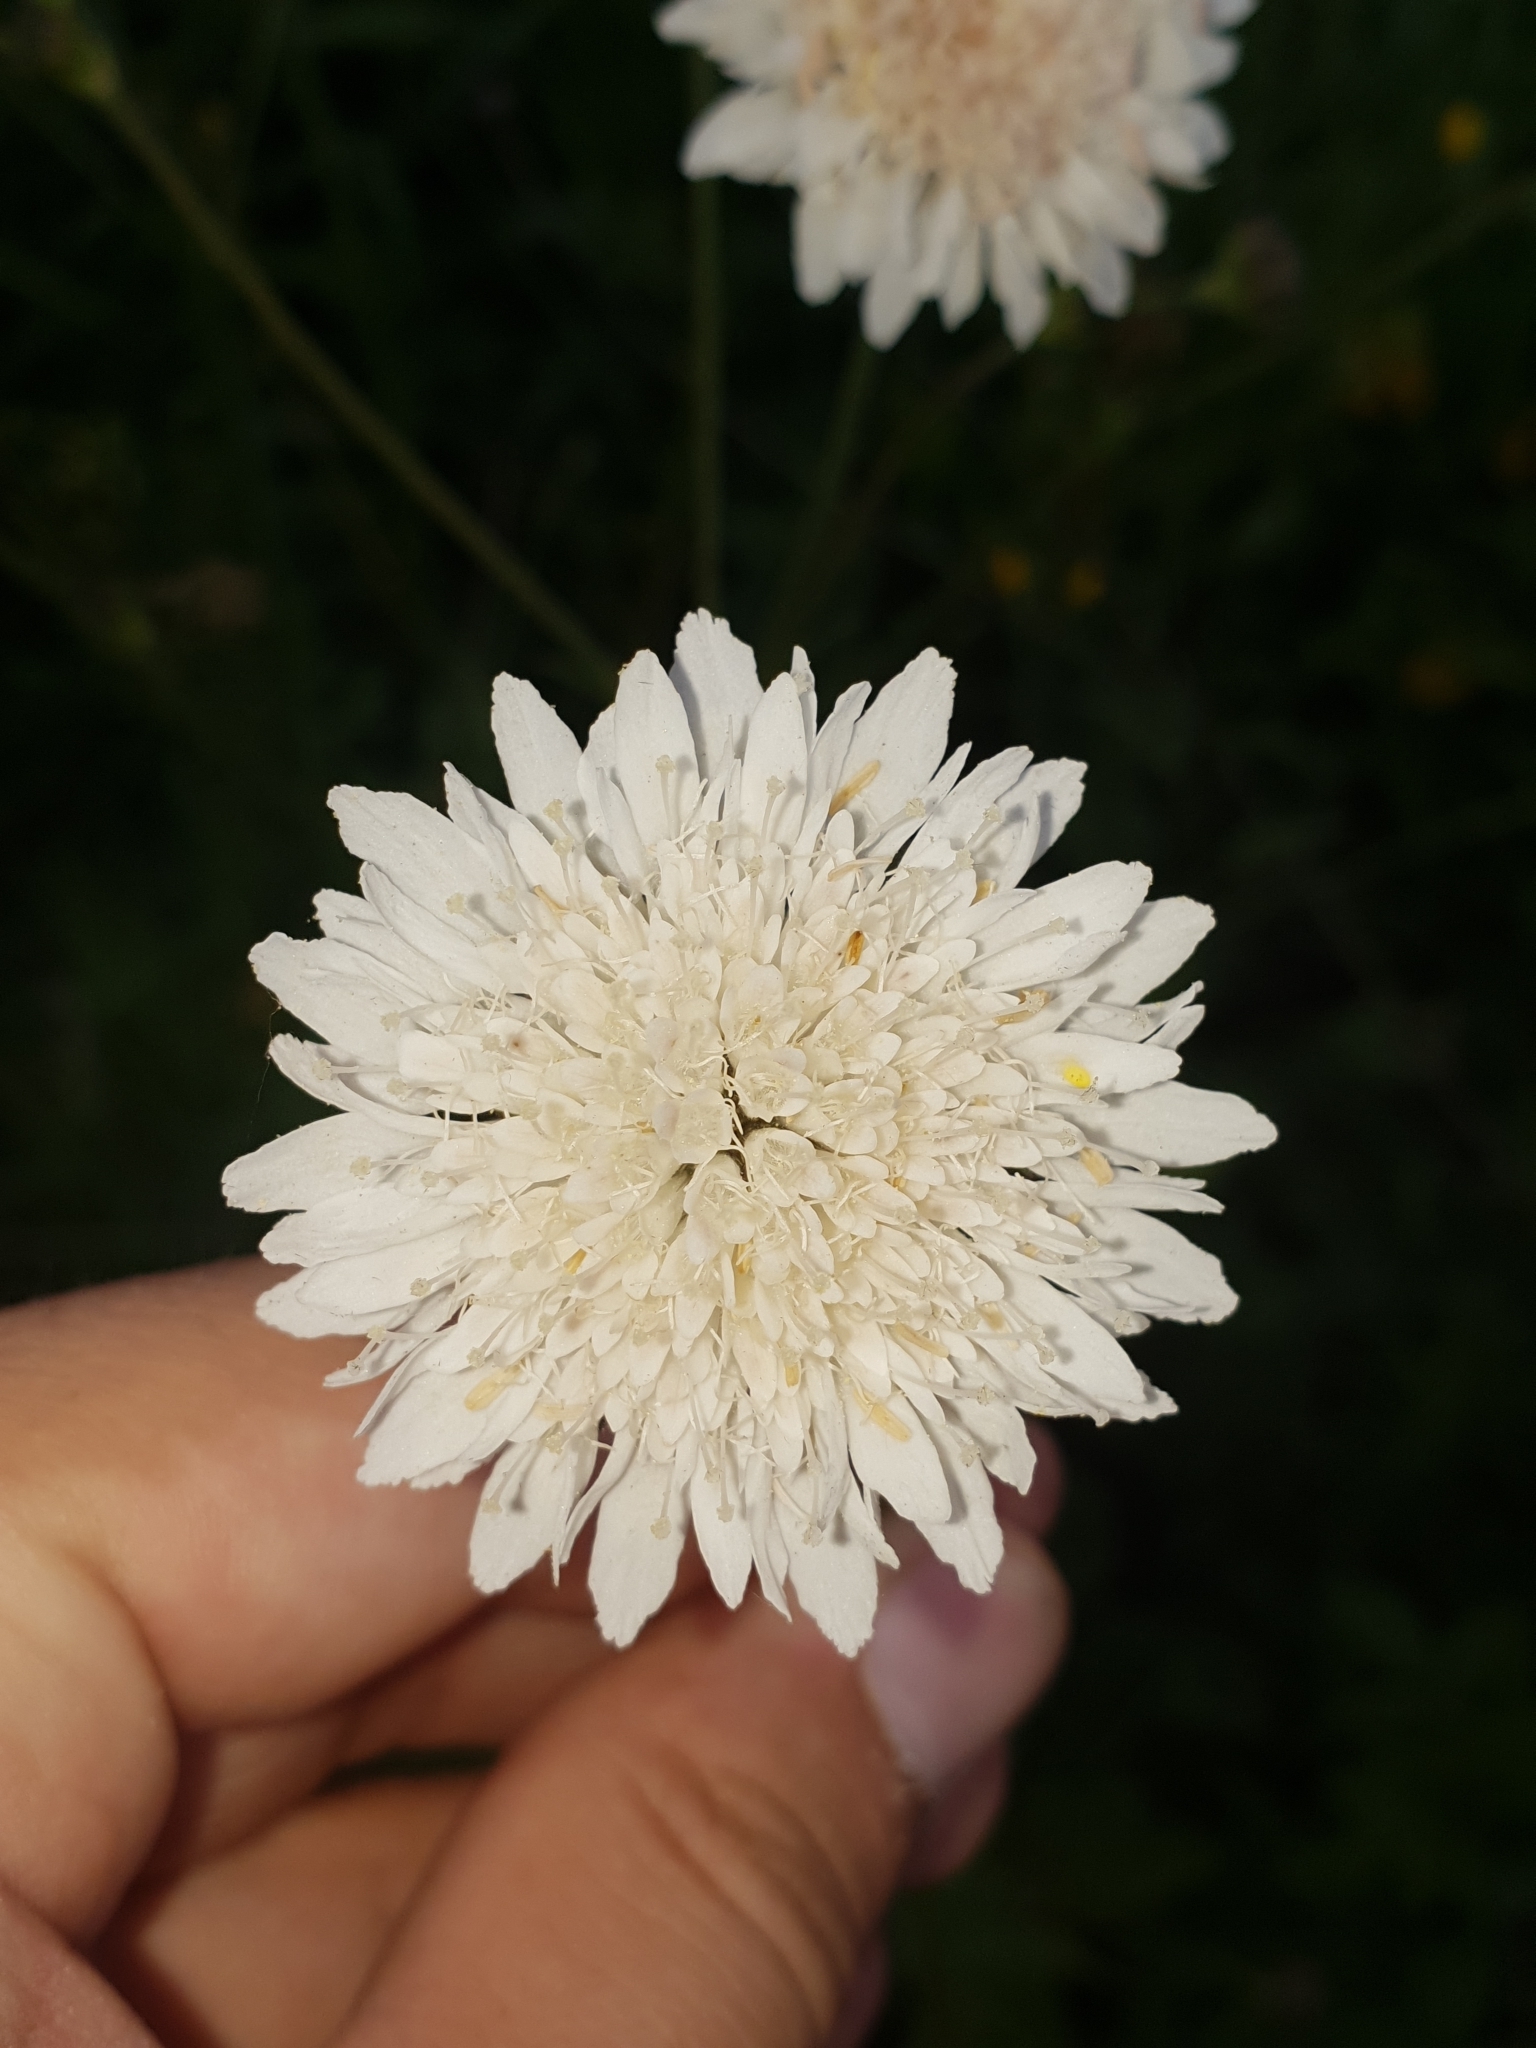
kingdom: Plantae
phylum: Tracheophyta
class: Magnoliopsida
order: Dipsacales
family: Caprifoliaceae
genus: Knautia
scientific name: Knautia tatarica
